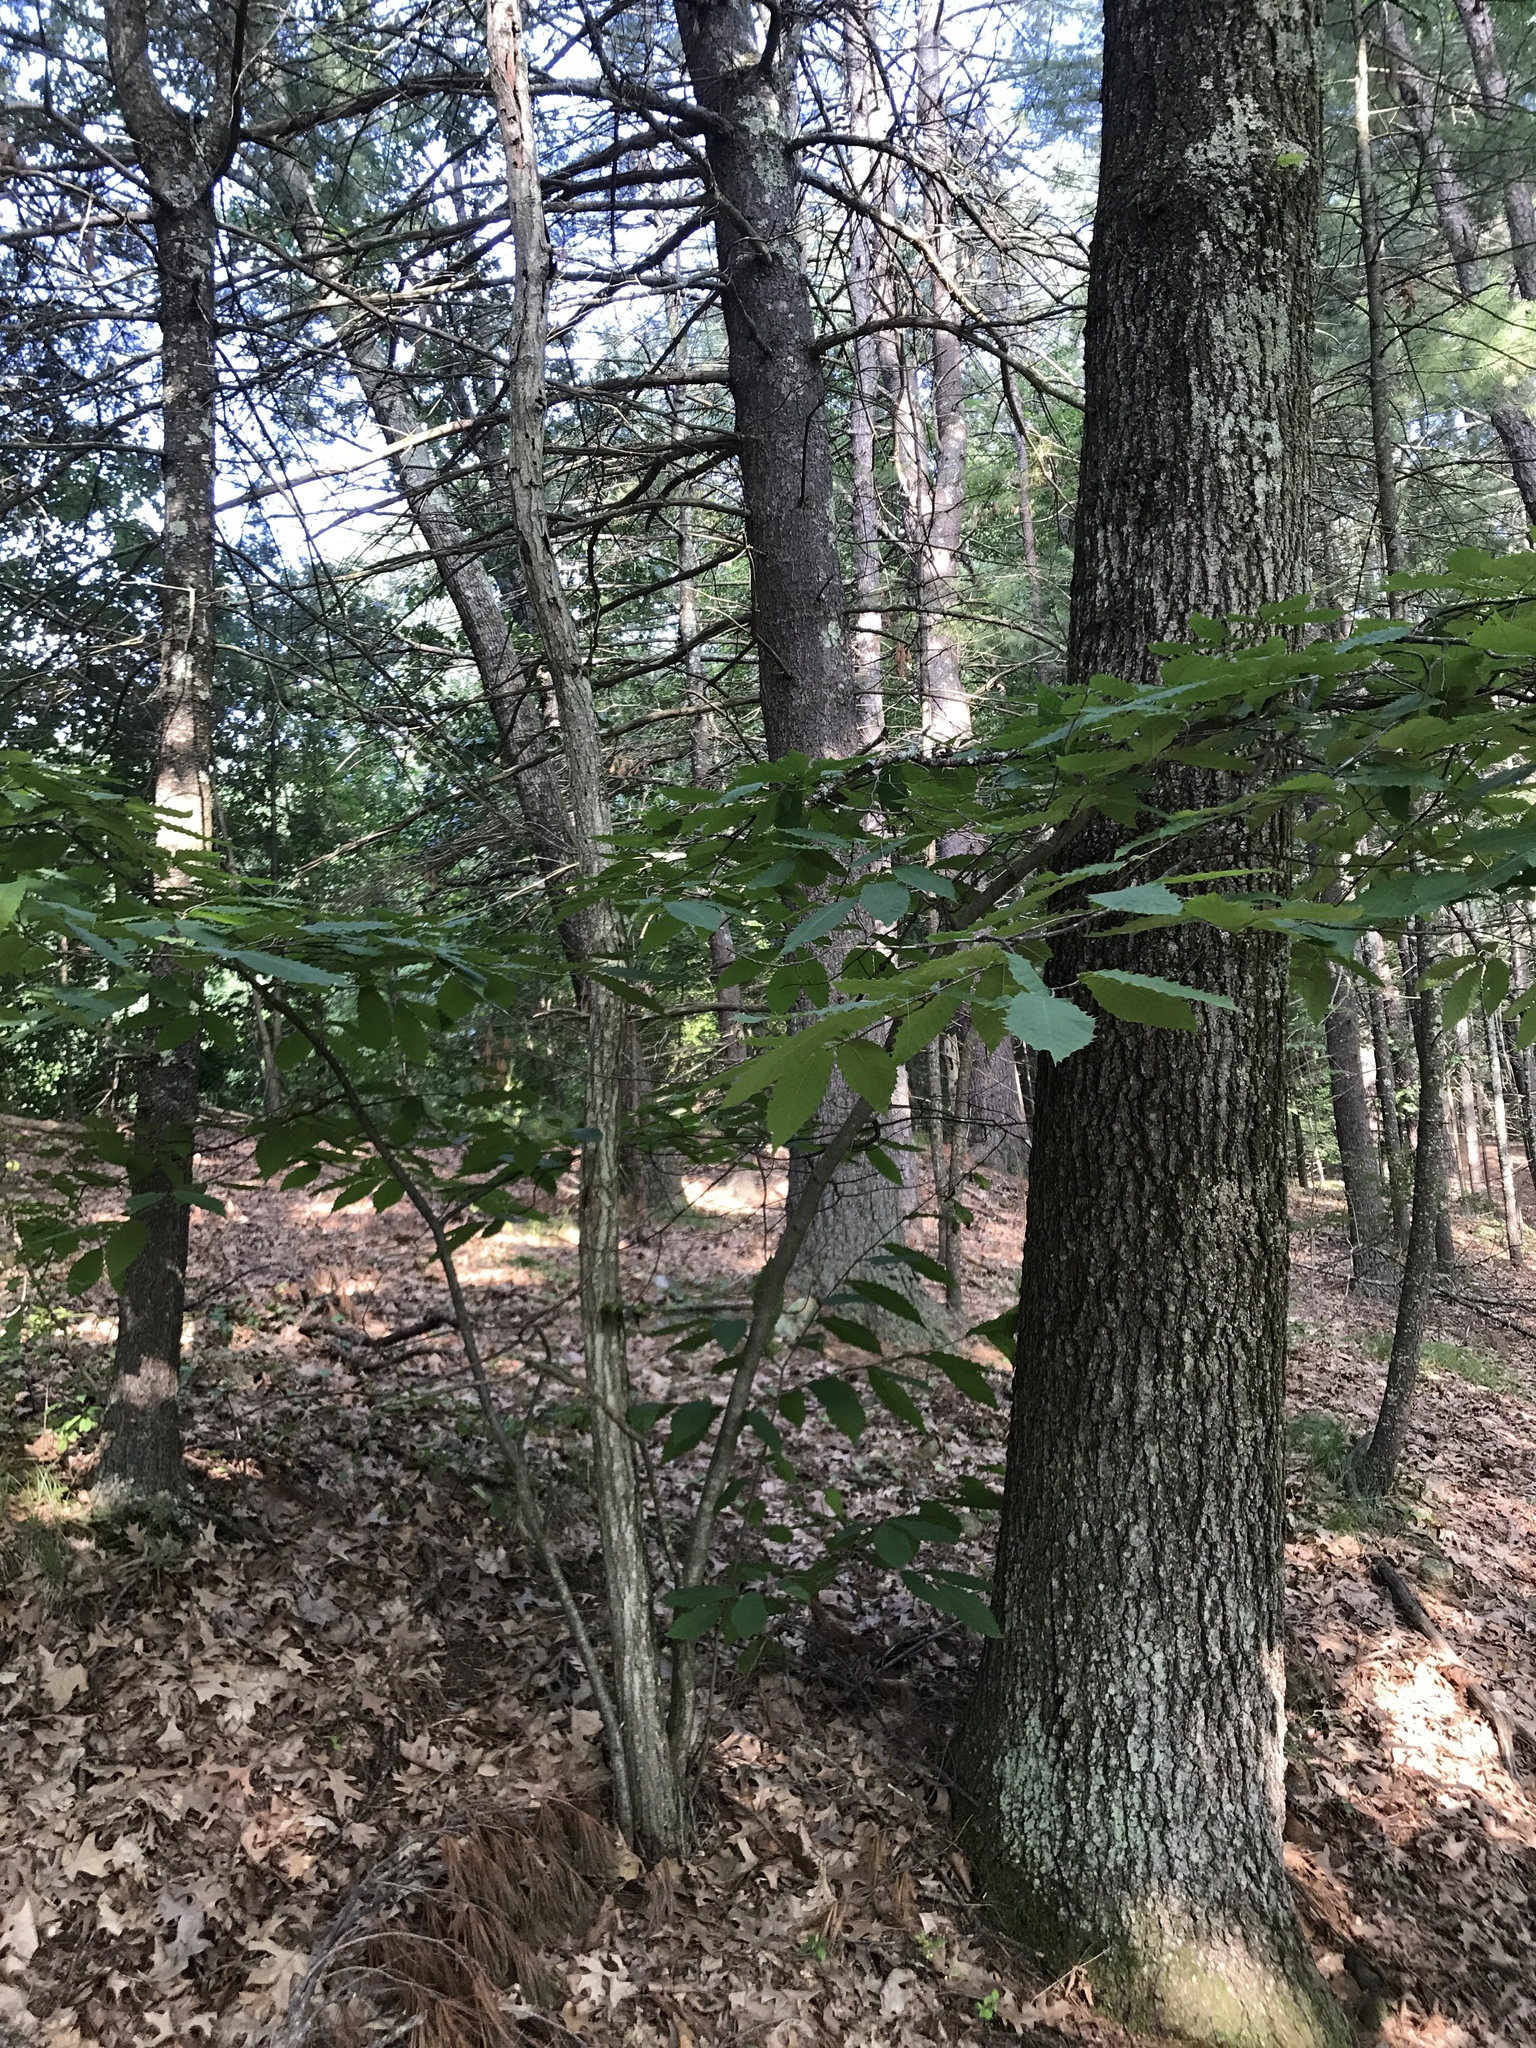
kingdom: Plantae
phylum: Tracheophyta
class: Magnoliopsida
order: Fagales
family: Fagaceae
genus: Castanea
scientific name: Castanea dentata
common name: American chestnut
